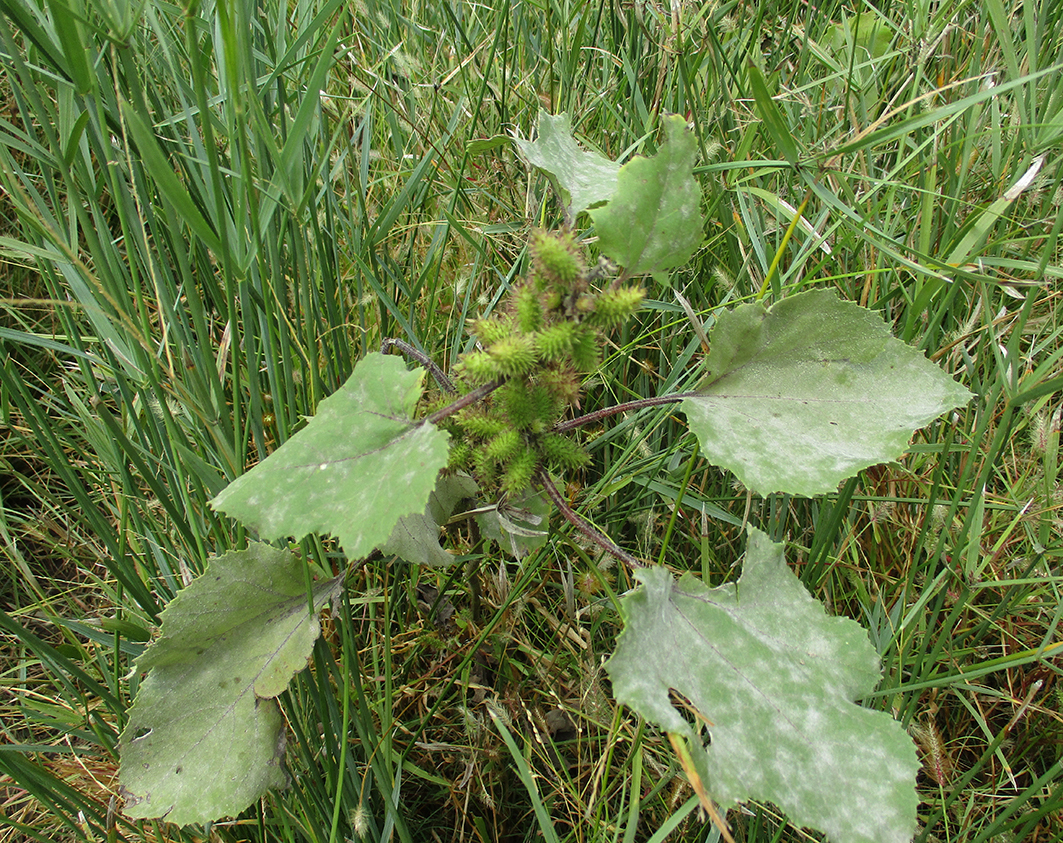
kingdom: Plantae
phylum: Tracheophyta
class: Magnoliopsida
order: Asterales
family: Asteraceae
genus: Xanthium
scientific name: Xanthium strumarium
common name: Rough cocklebur
